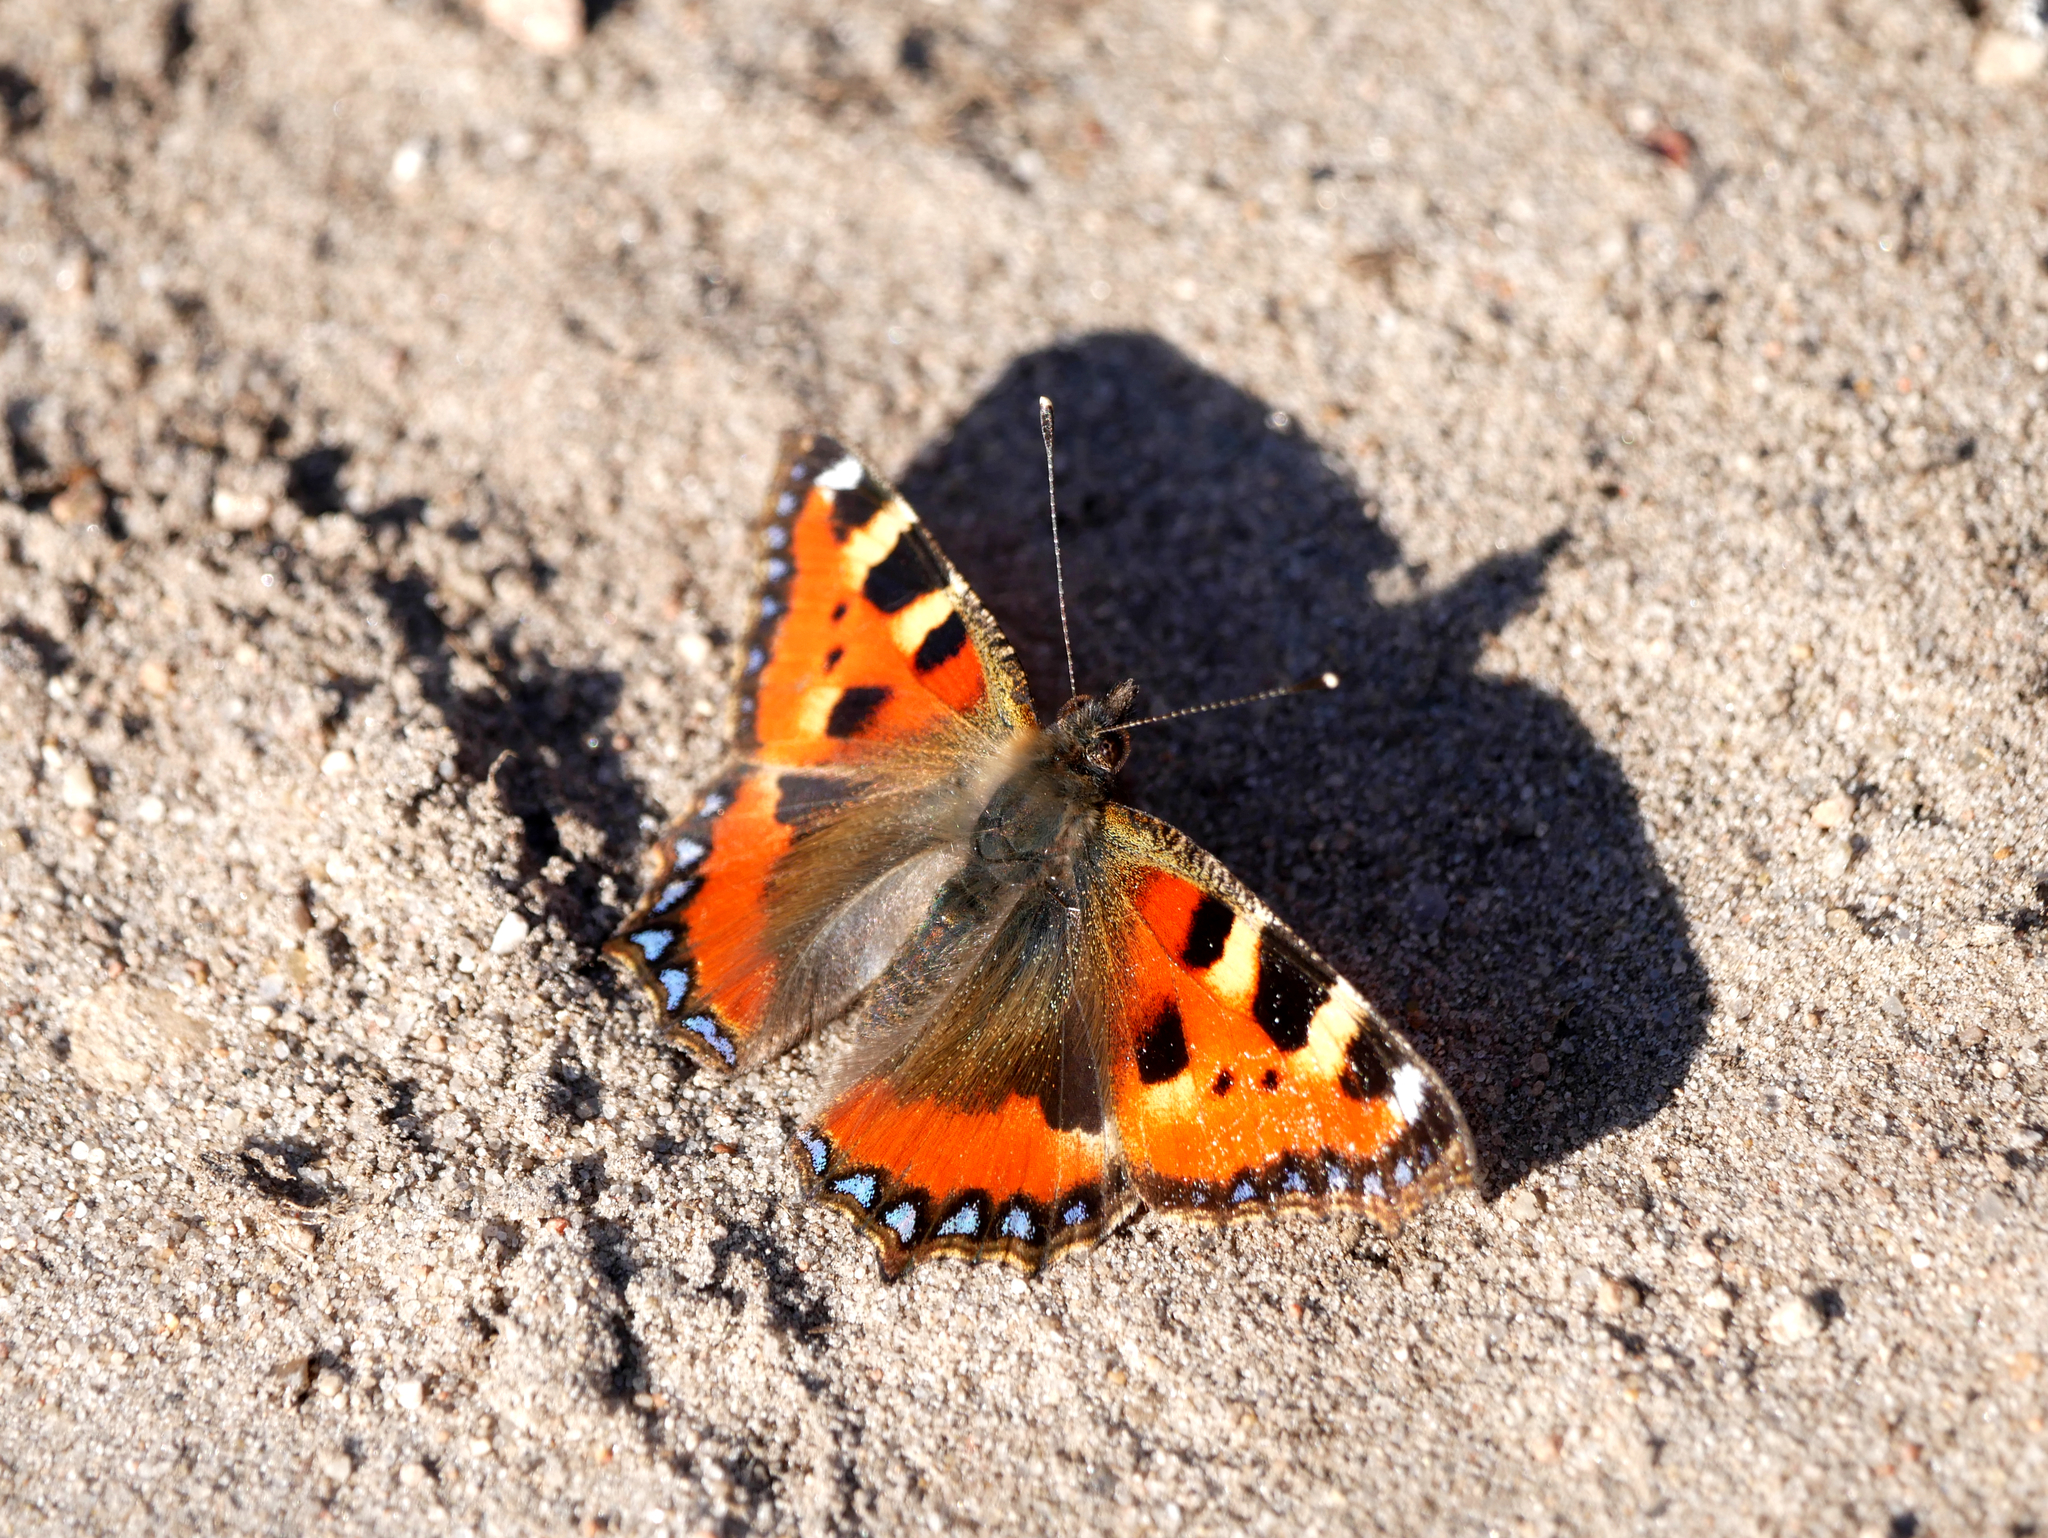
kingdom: Animalia
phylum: Arthropoda
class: Insecta
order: Lepidoptera
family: Nymphalidae
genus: Aglais
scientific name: Aglais urticae
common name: Small tortoiseshell
